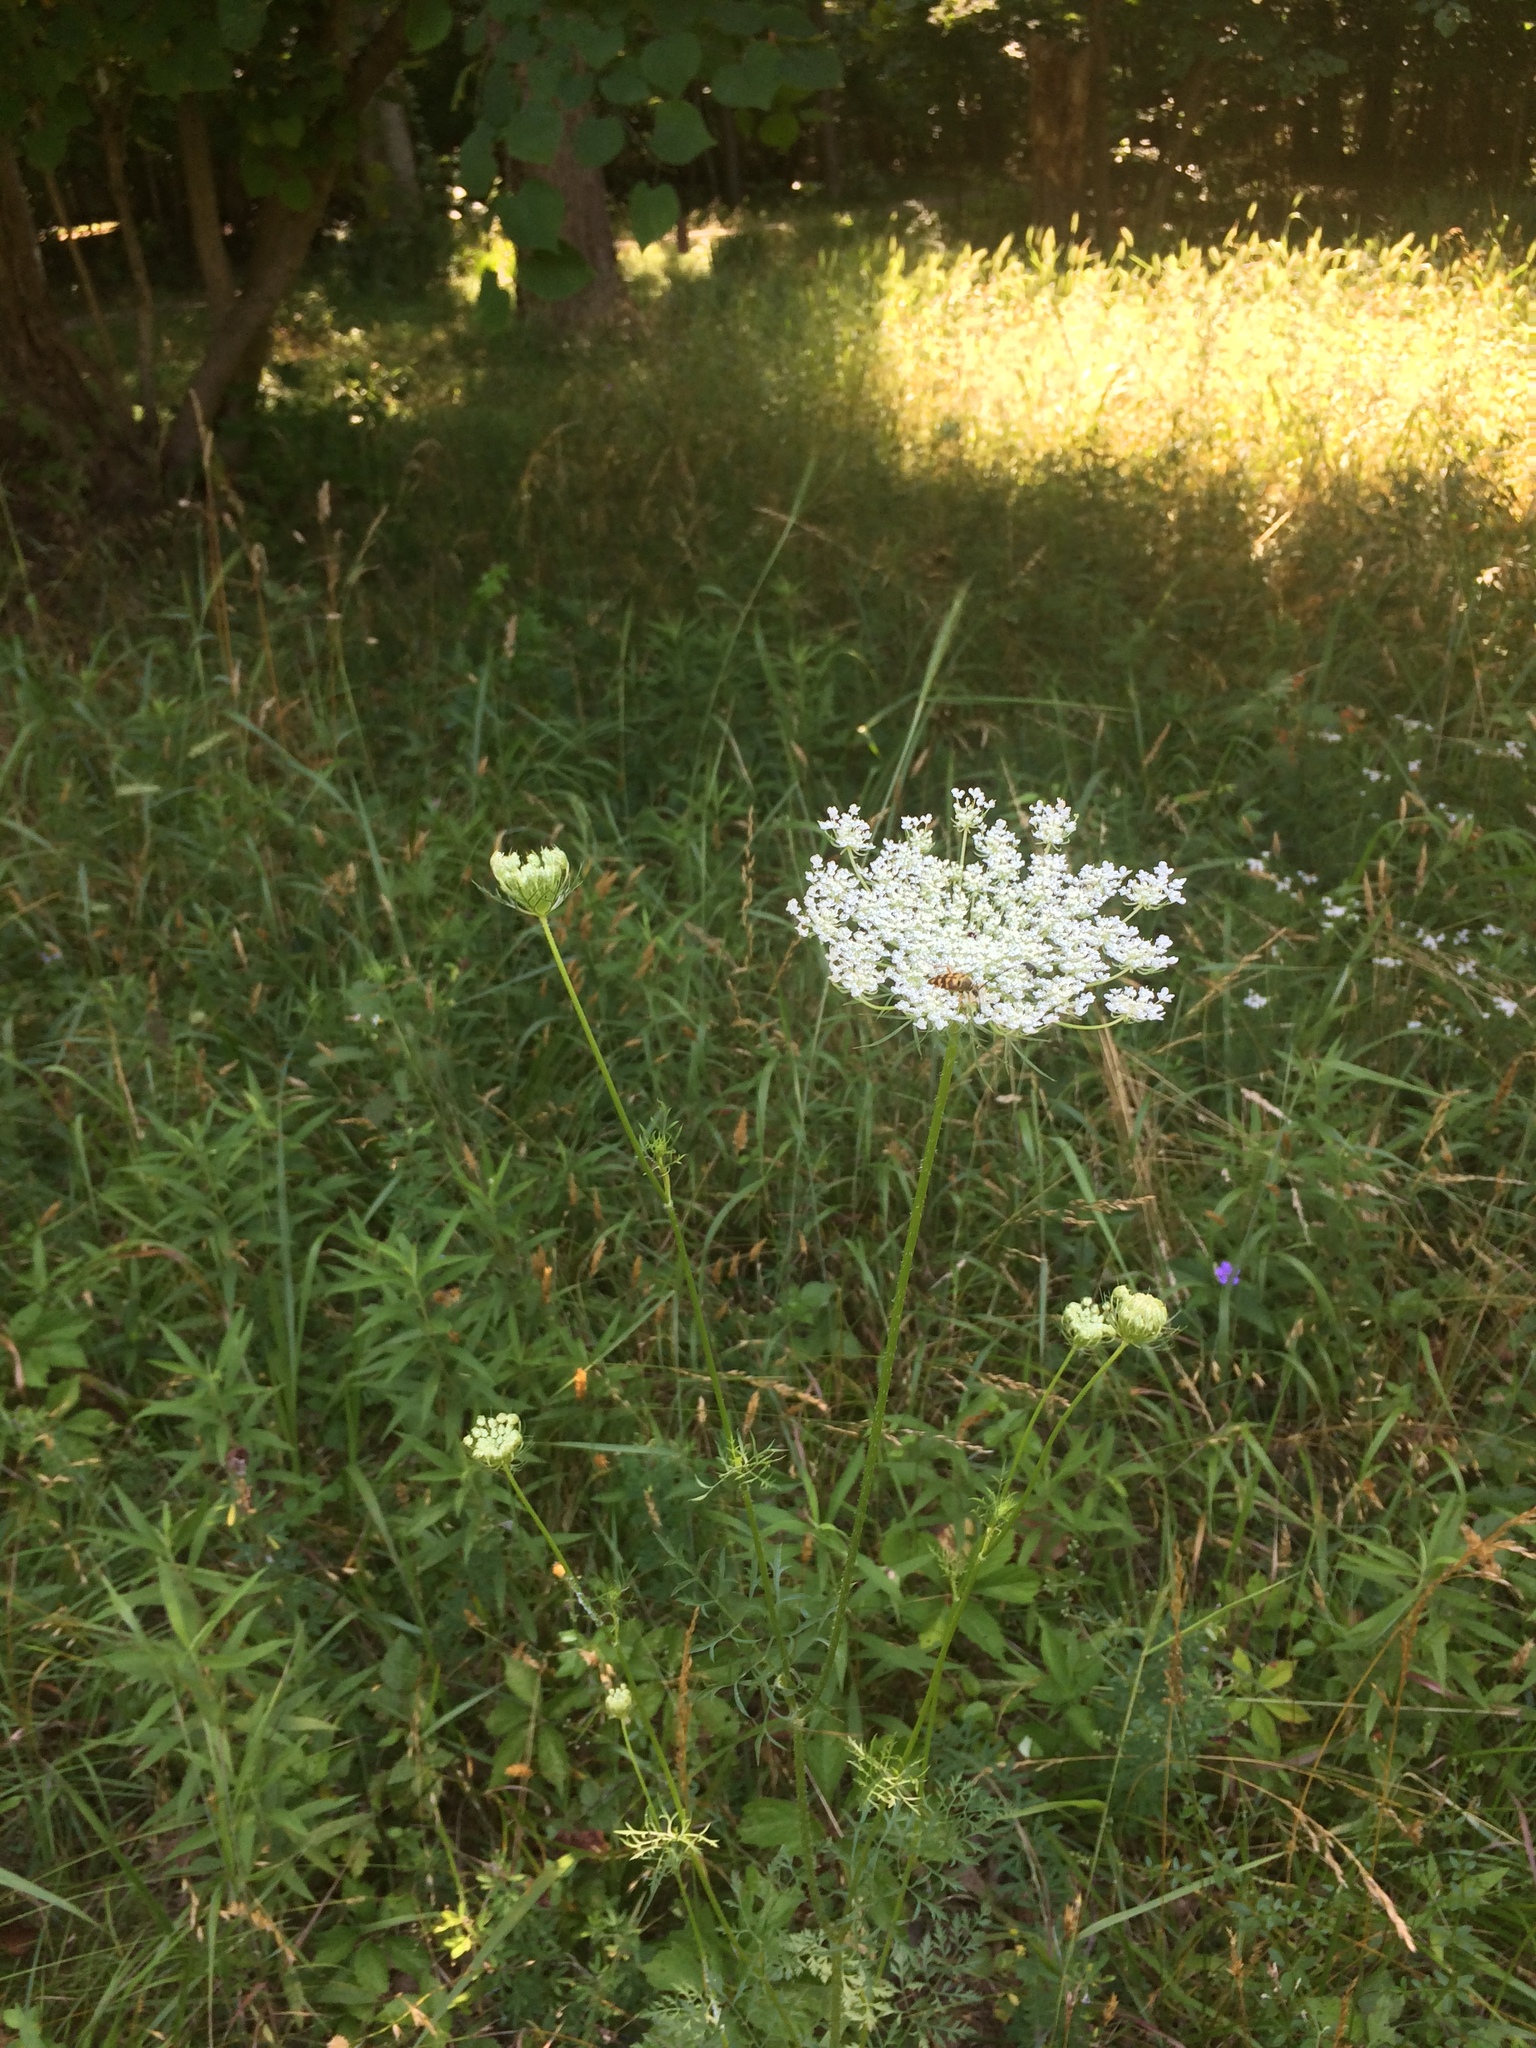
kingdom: Plantae
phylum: Tracheophyta
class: Magnoliopsida
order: Apiales
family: Apiaceae
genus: Daucus
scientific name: Daucus carota
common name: Wild carrot
